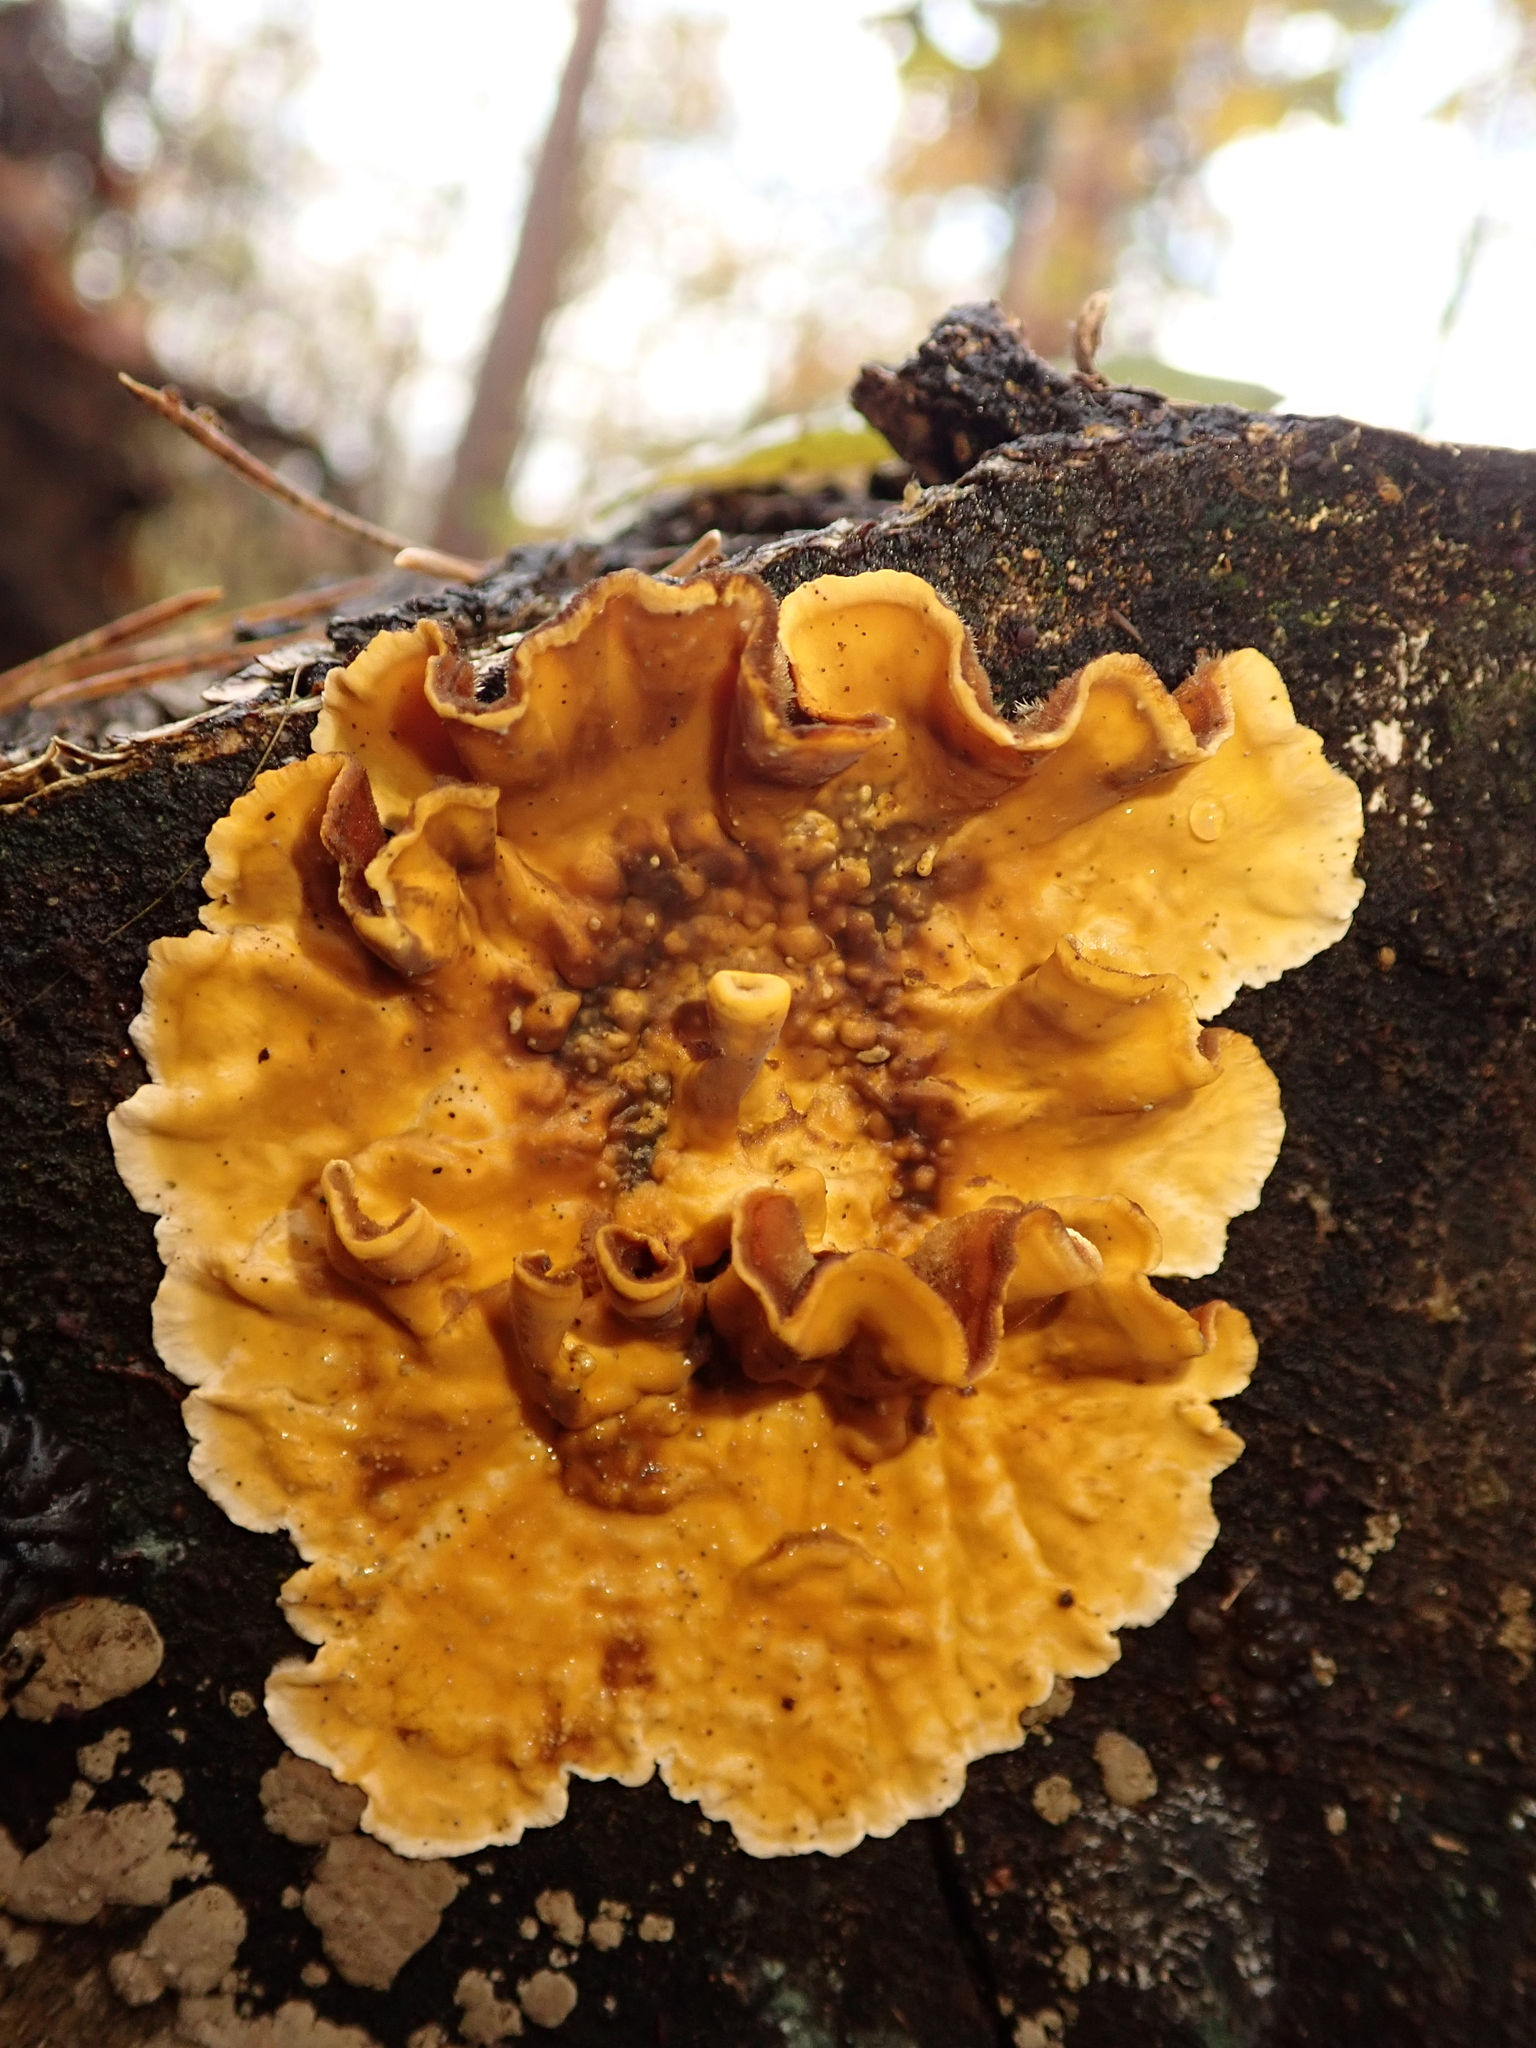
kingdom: Fungi
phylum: Basidiomycota
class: Agaricomycetes
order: Russulales
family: Stereaceae
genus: Stereum
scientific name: Stereum hirsutum
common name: Hairy curtain crust
